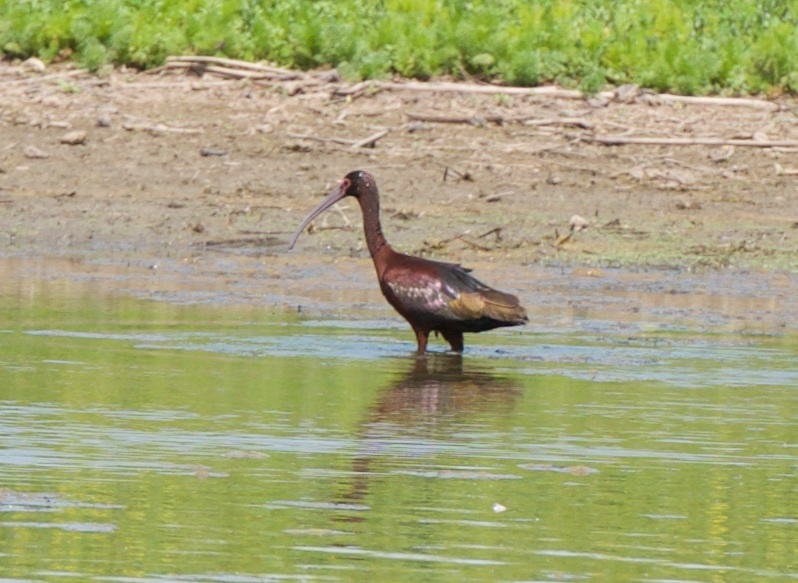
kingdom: Animalia
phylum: Chordata
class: Aves
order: Pelecaniformes
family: Threskiornithidae
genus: Plegadis
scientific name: Plegadis chihi
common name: White-faced ibis
